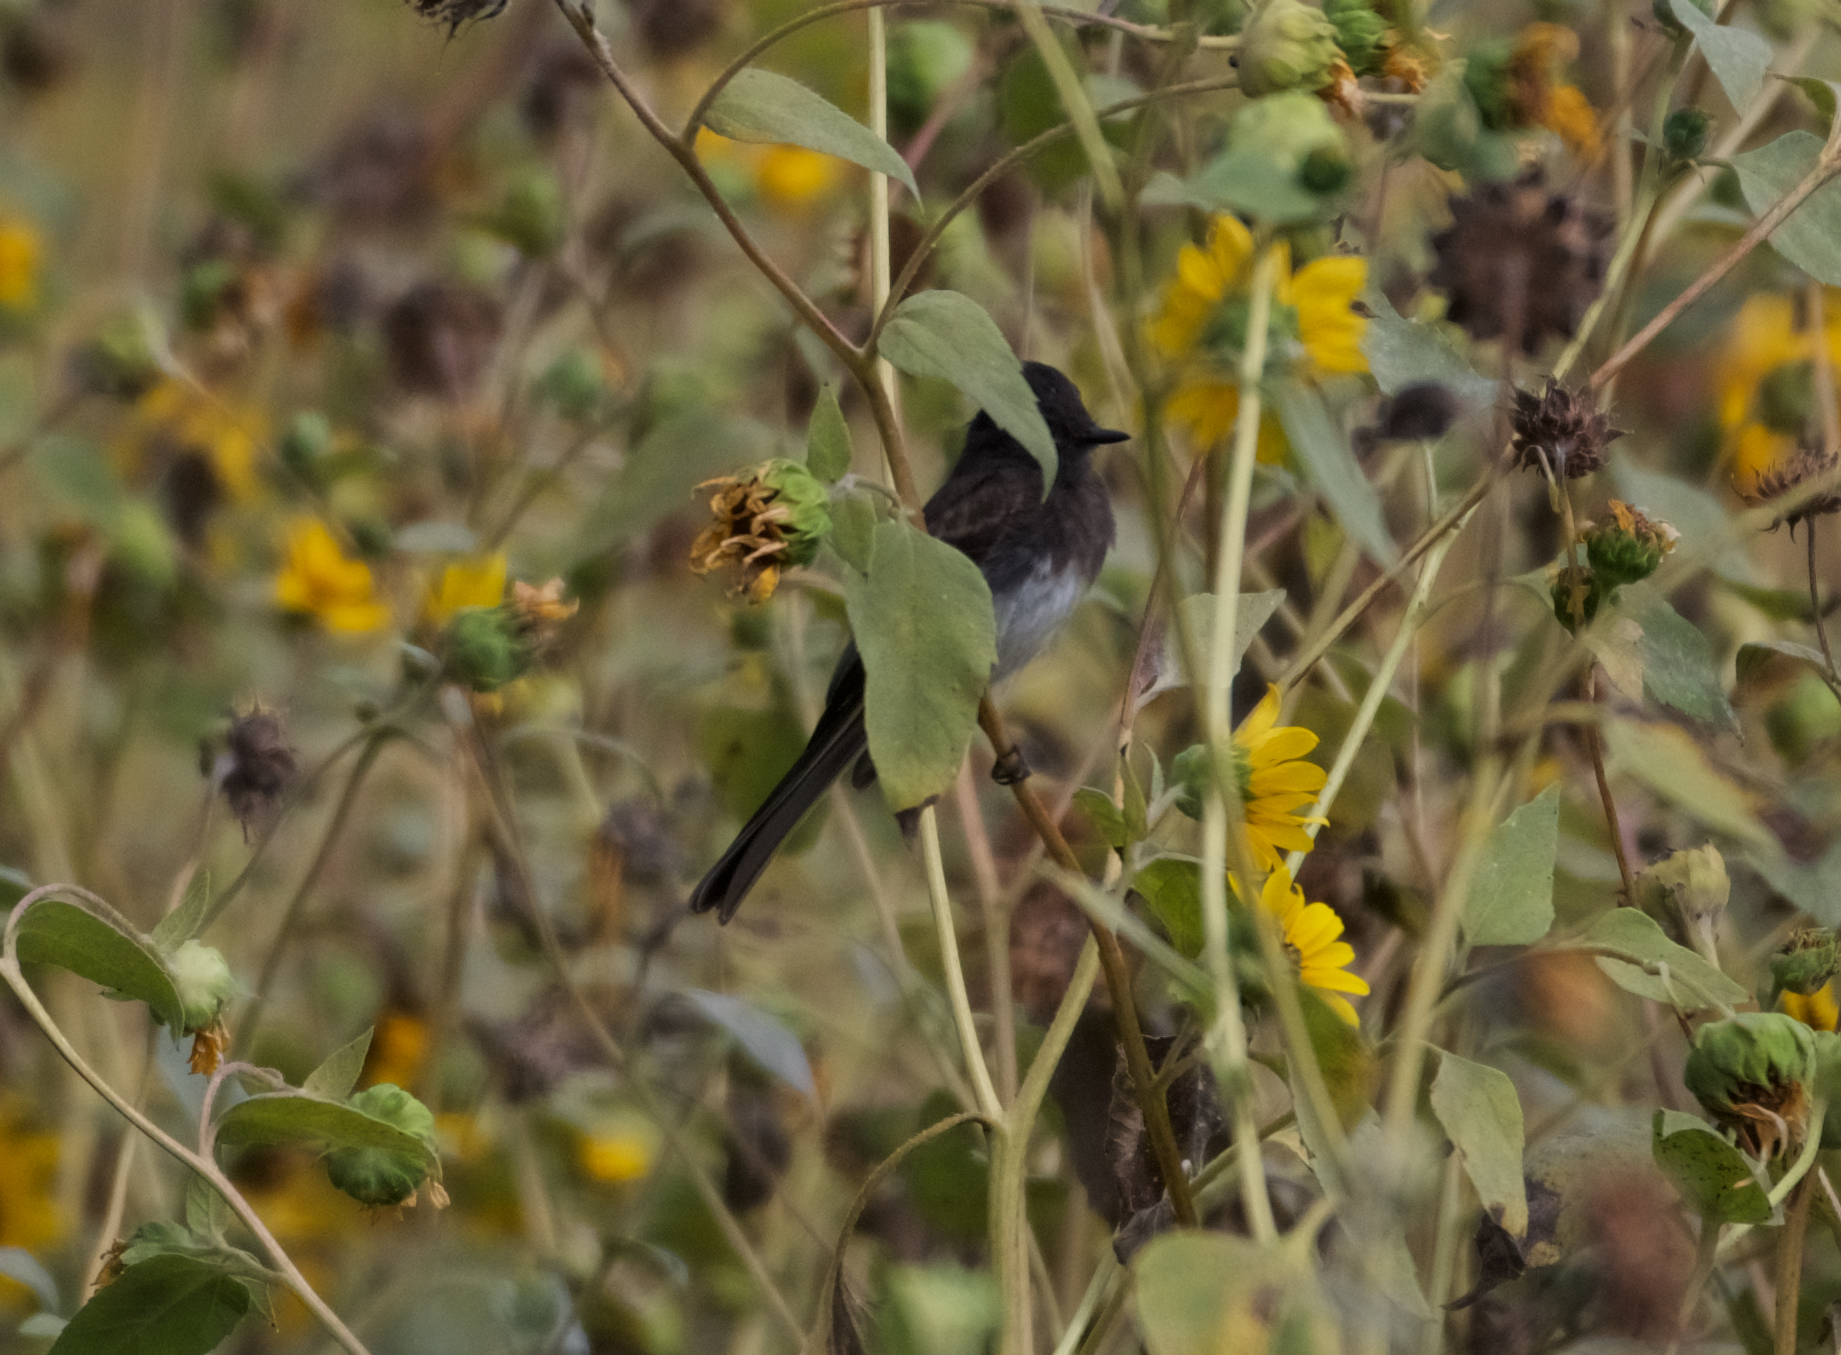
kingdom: Animalia
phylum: Chordata
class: Aves
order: Passeriformes
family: Tyrannidae
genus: Sayornis
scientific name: Sayornis nigricans
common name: Black phoebe
